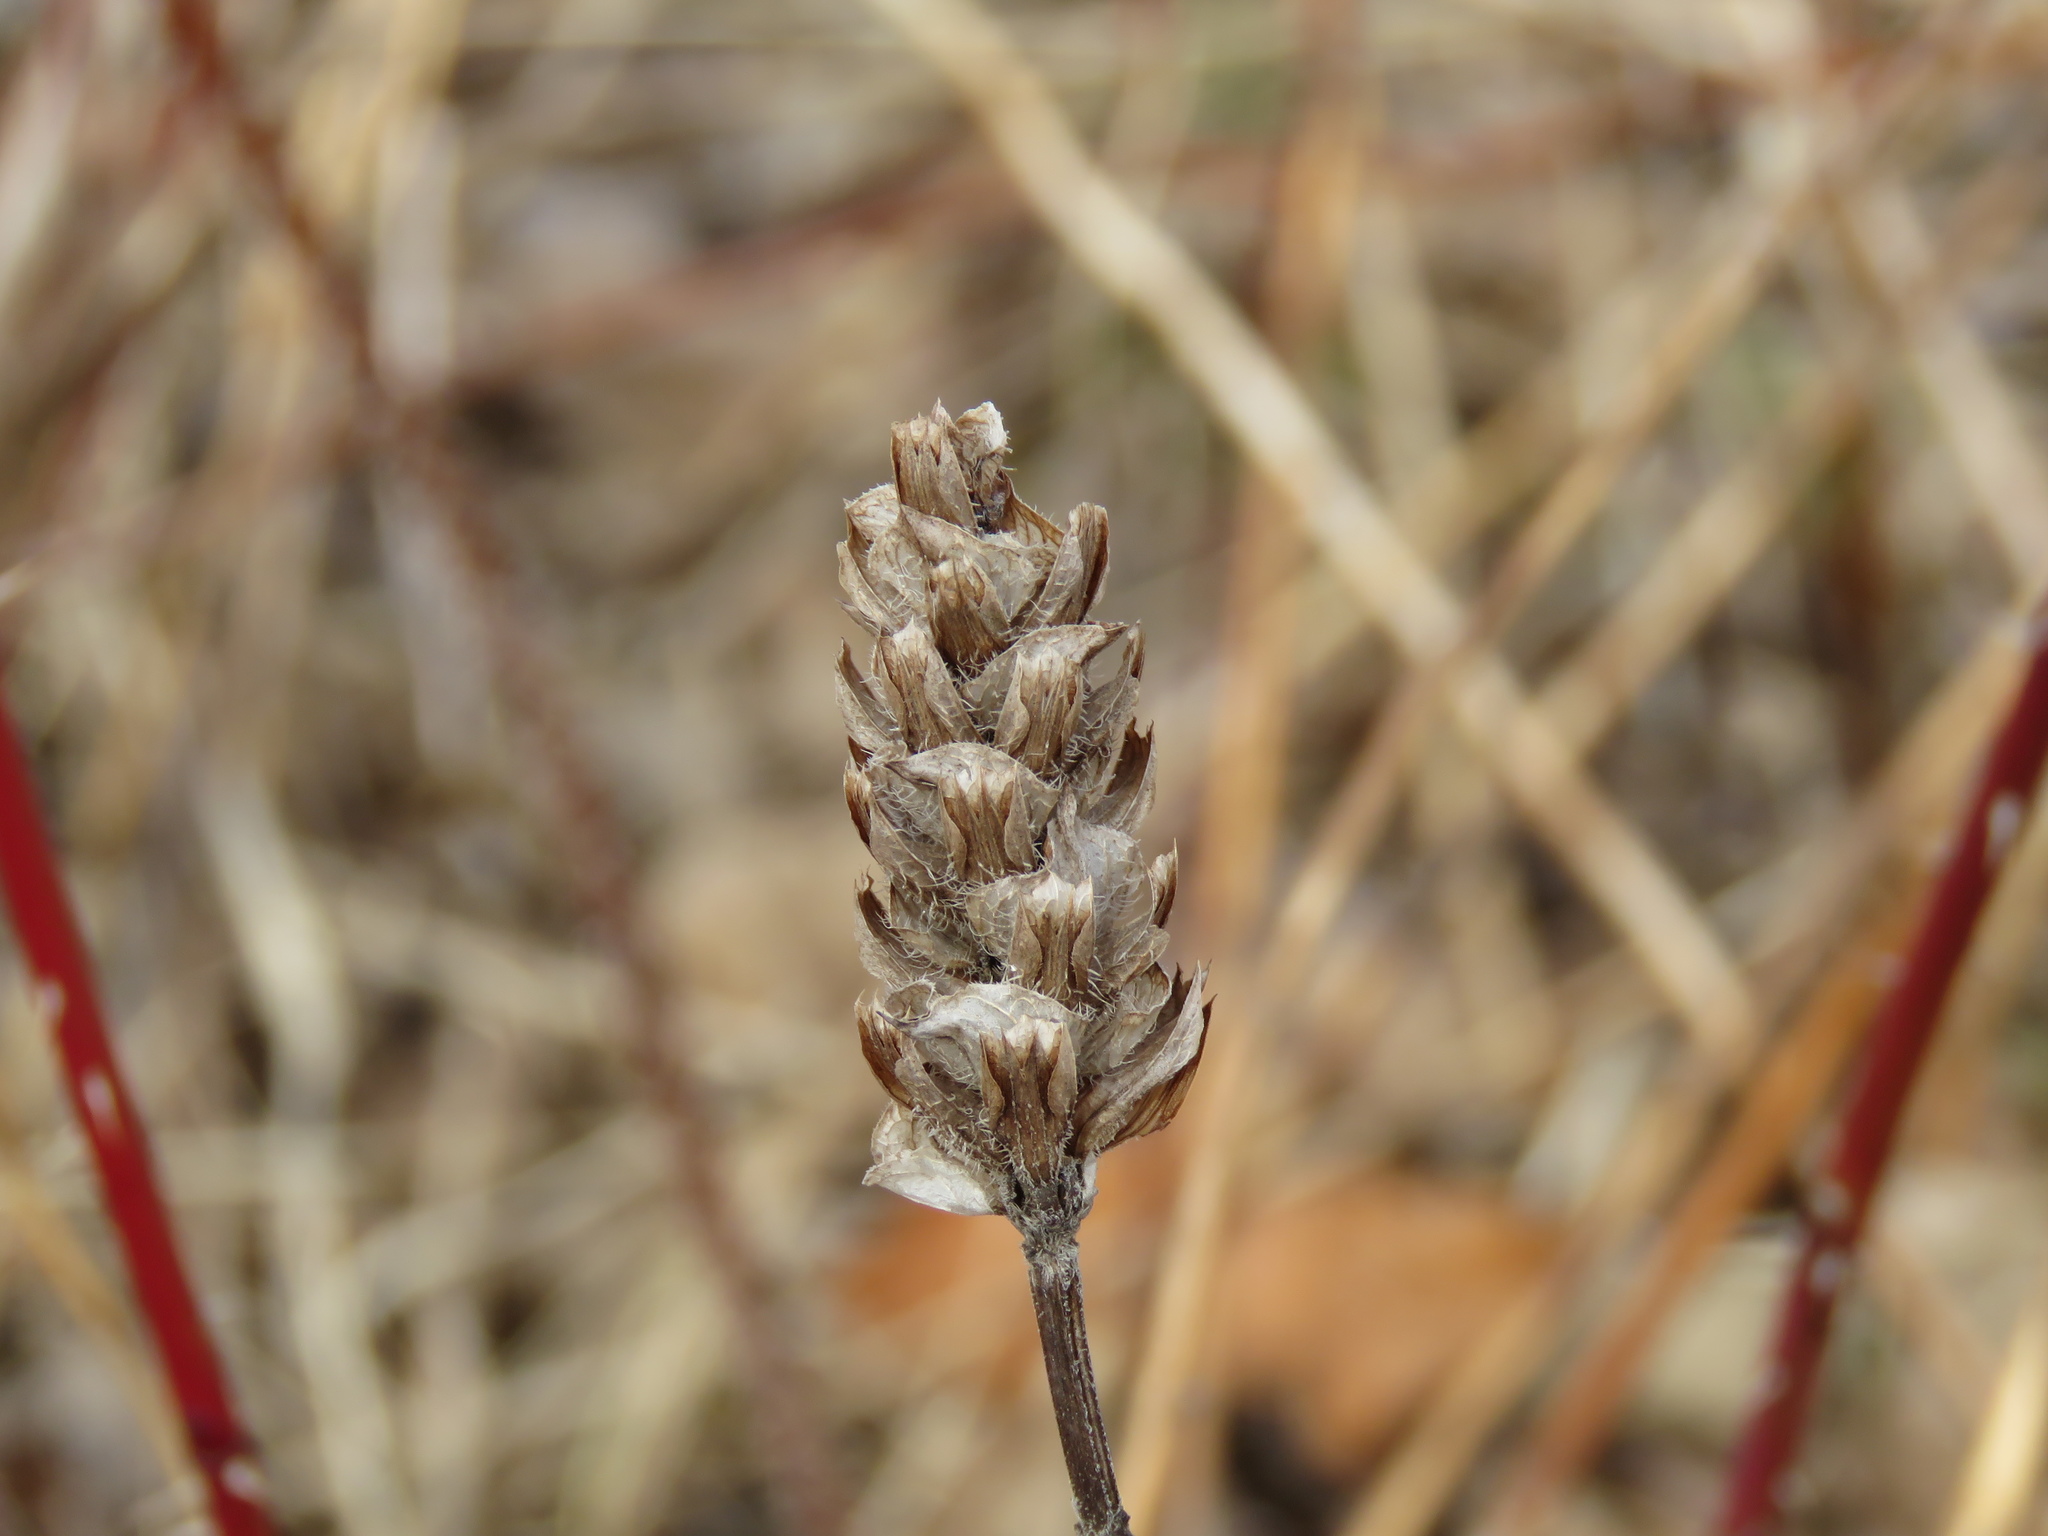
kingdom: Plantae
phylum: Tracheophyta
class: Magnoliopsida
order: Lamiales
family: Lamiaceae
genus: Prunella
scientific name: Prunella vulgaris
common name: Heal-all
